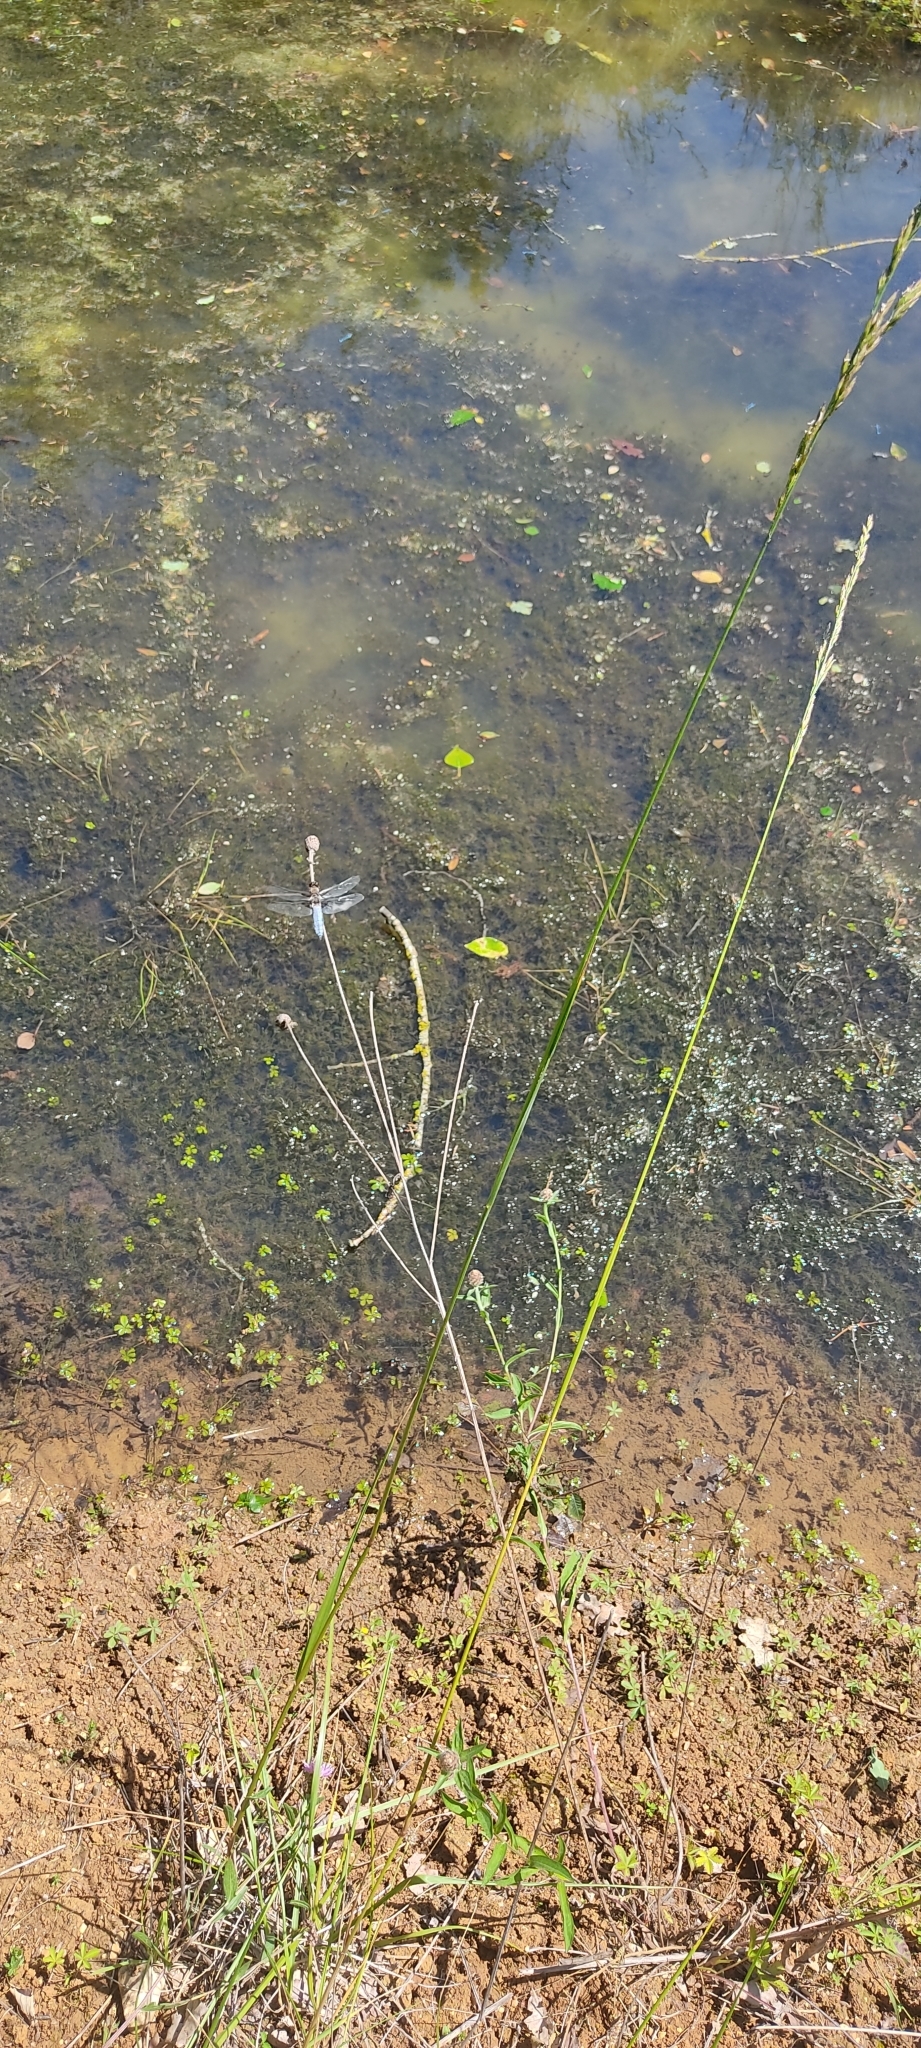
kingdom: Animalia
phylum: Arthropoda
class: Insecta
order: Odonata
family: Libellulidae
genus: Libellula
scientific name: Libellula depressa
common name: Broad-bodied chaser
